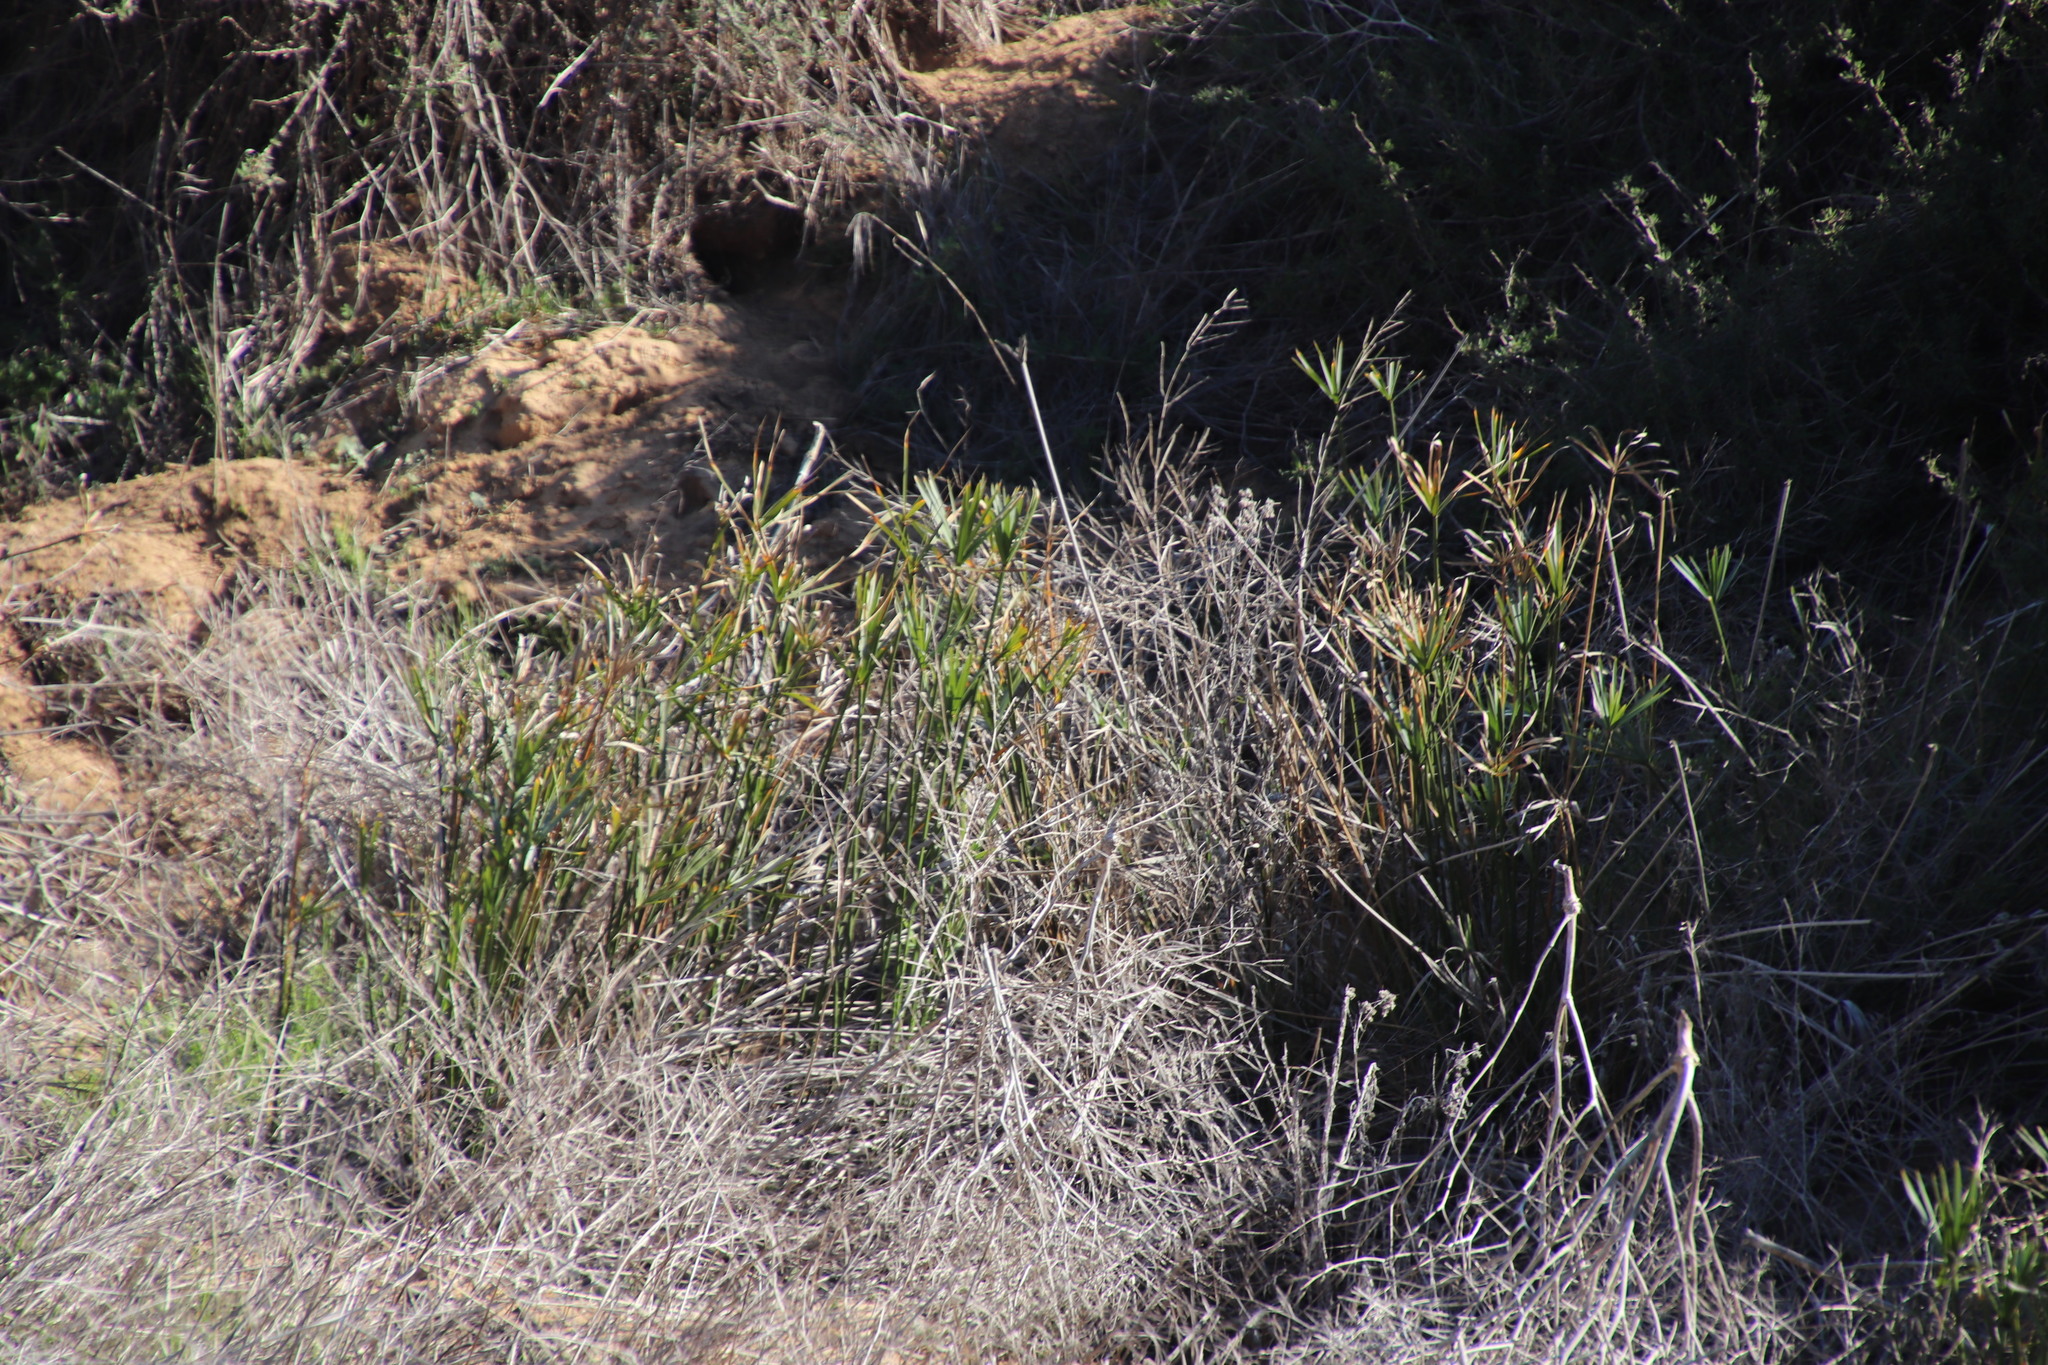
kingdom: Plantae
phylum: Tracheophyta
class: Liliopsida
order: Poales
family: Cyperaceae
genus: Cyperus
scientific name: Cyperus textilis
